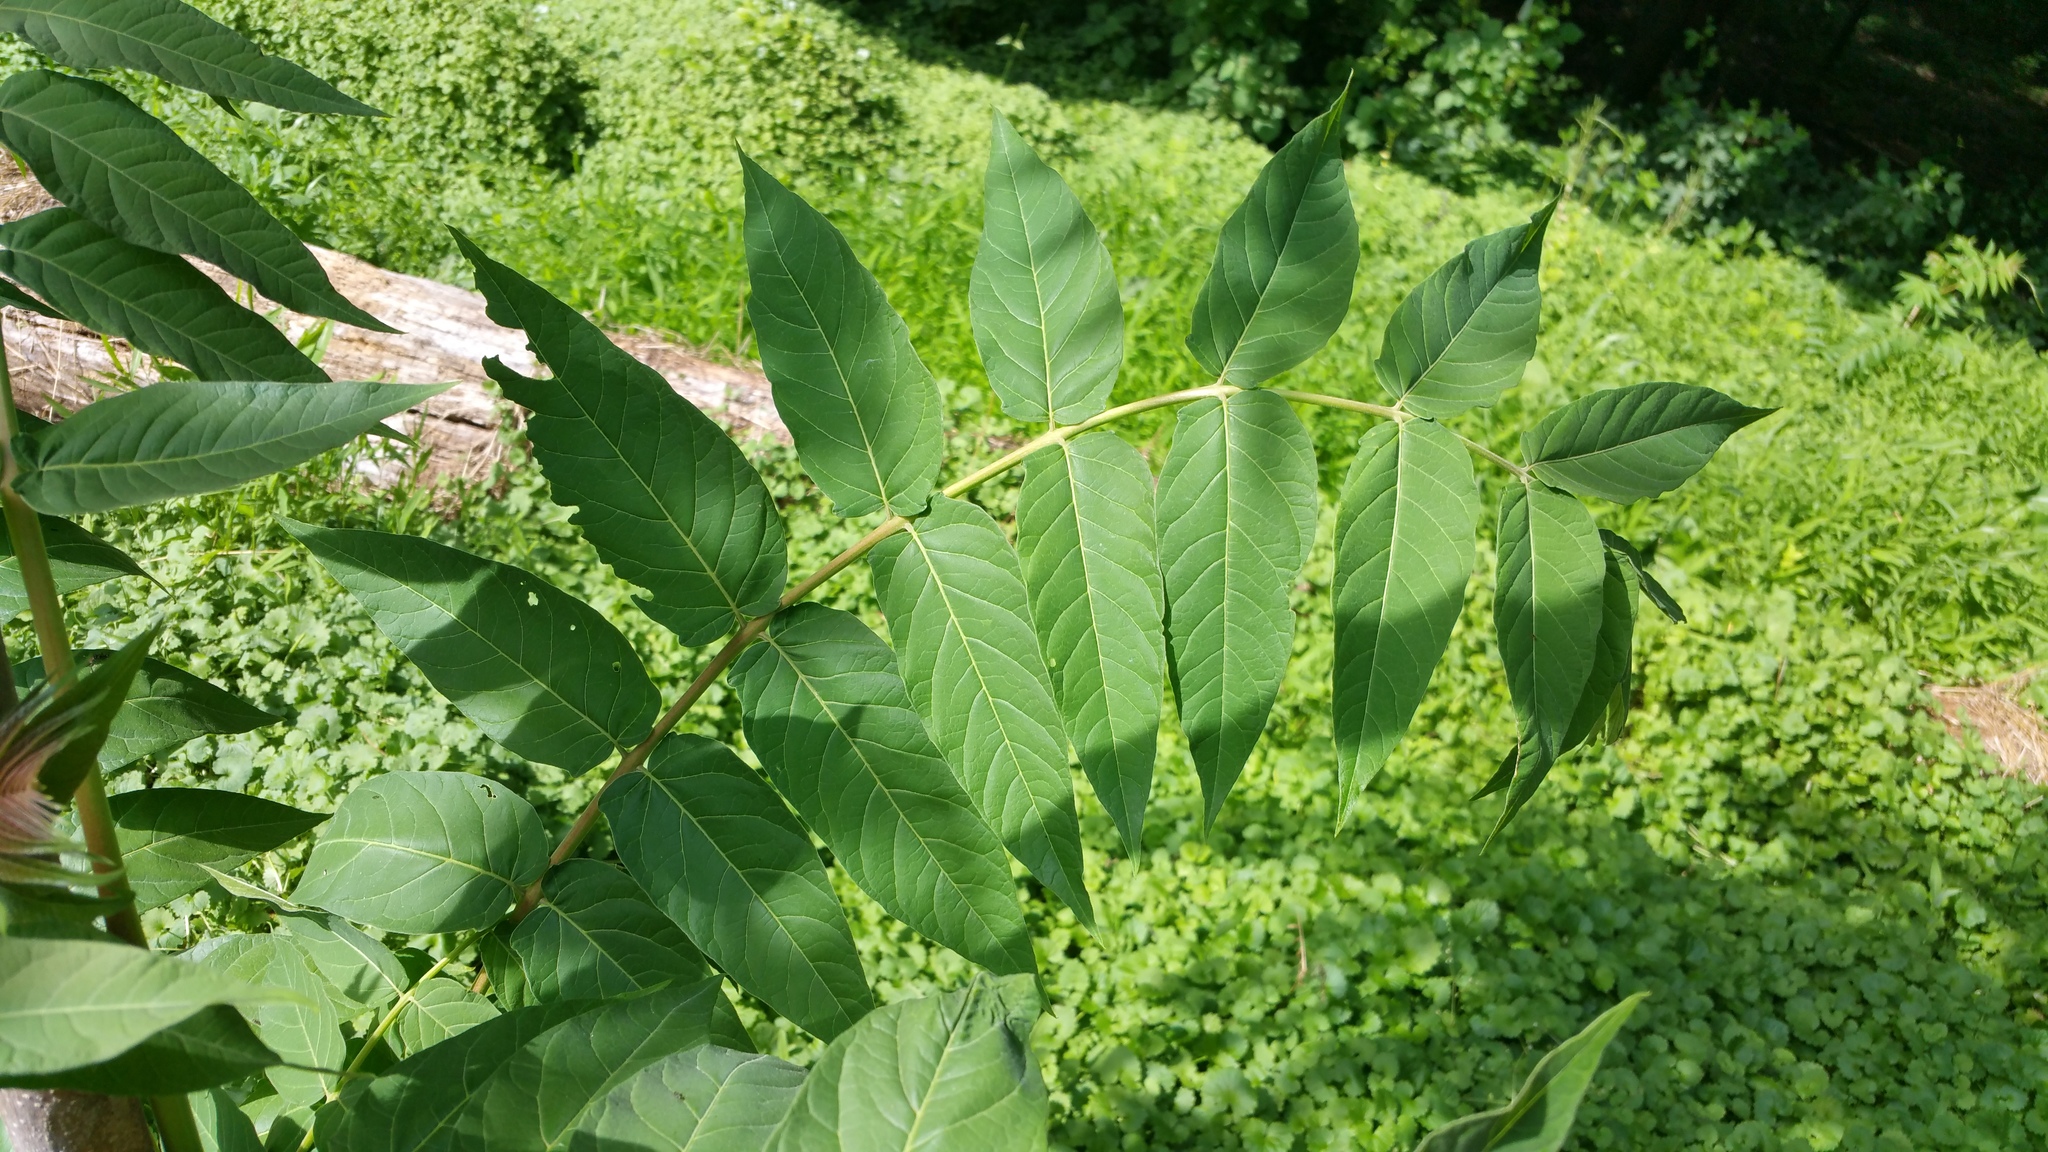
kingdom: Plantae
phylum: Tracheophyta
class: Magnoliopsida
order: Sapindales
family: Simaroubaceae
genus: Ailanthus
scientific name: Ailanthus altissima
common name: Tree-of-heaven
